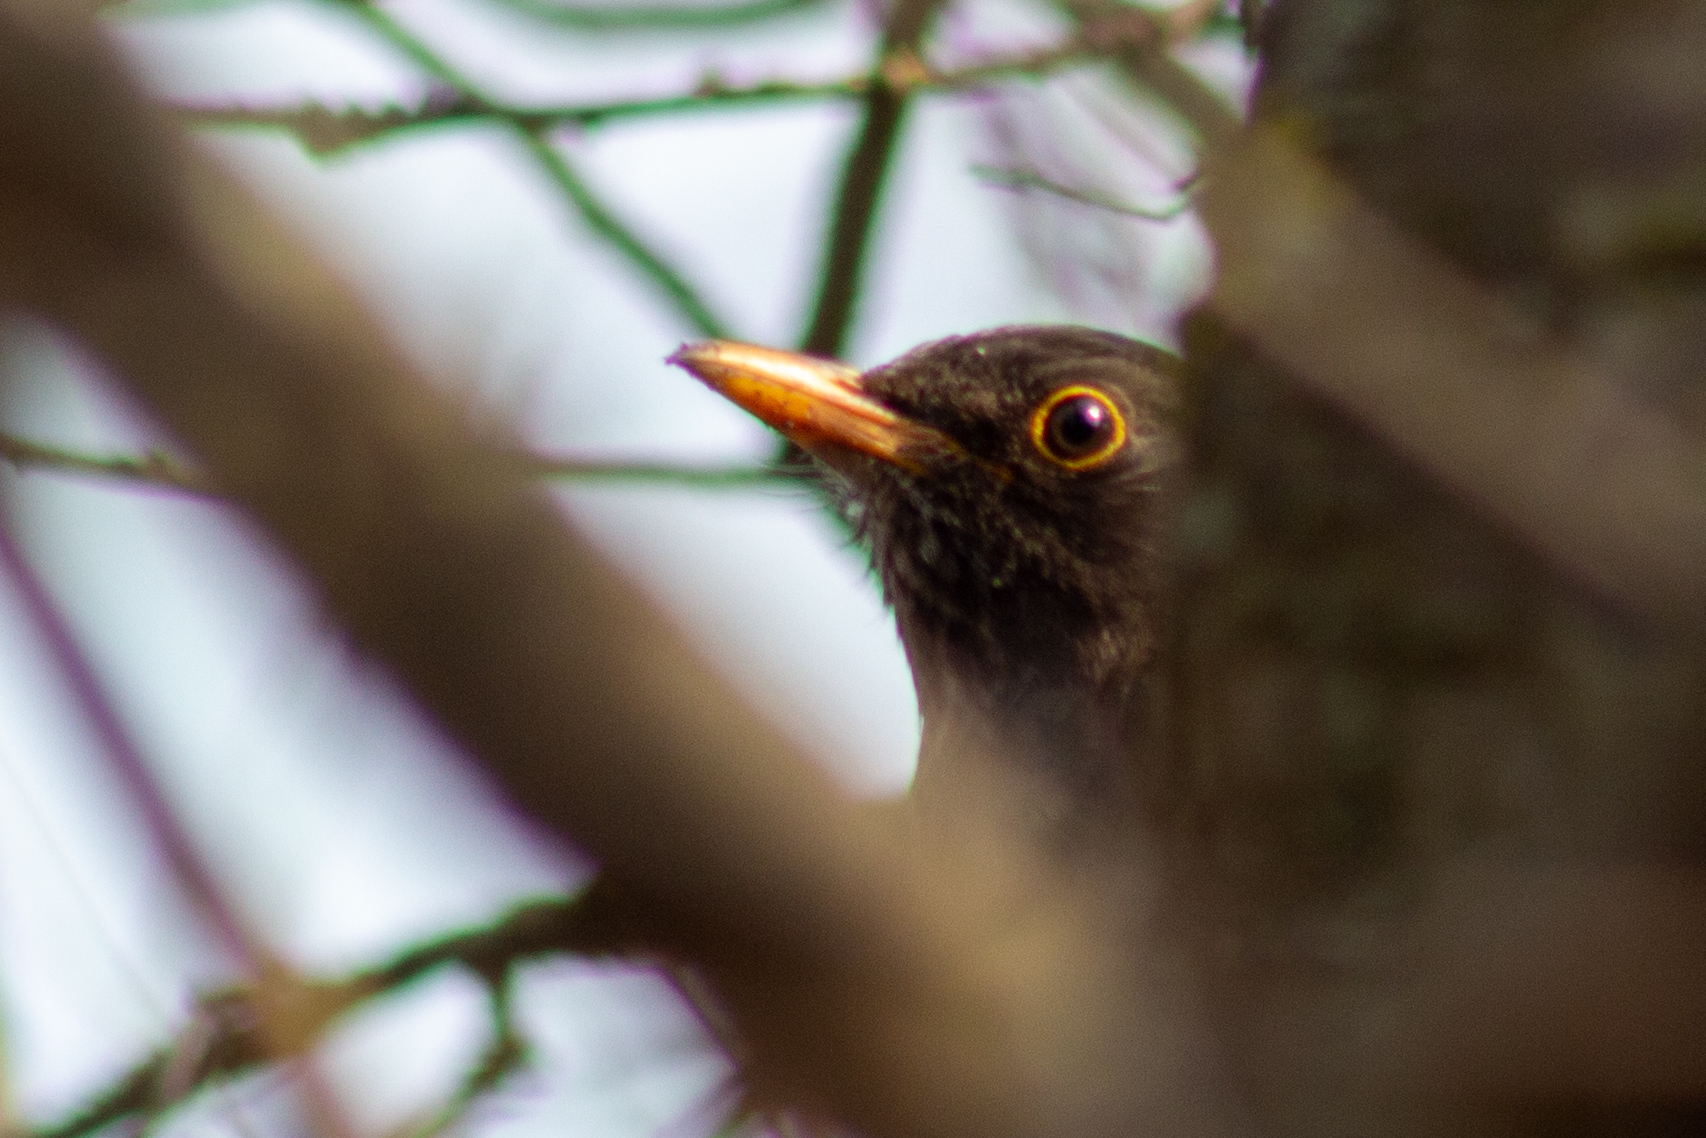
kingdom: Animalia
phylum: Chordata
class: Aves
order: Passeriformes
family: Turdidae
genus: Turdus
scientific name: Turdus merula
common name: Common blackbird
